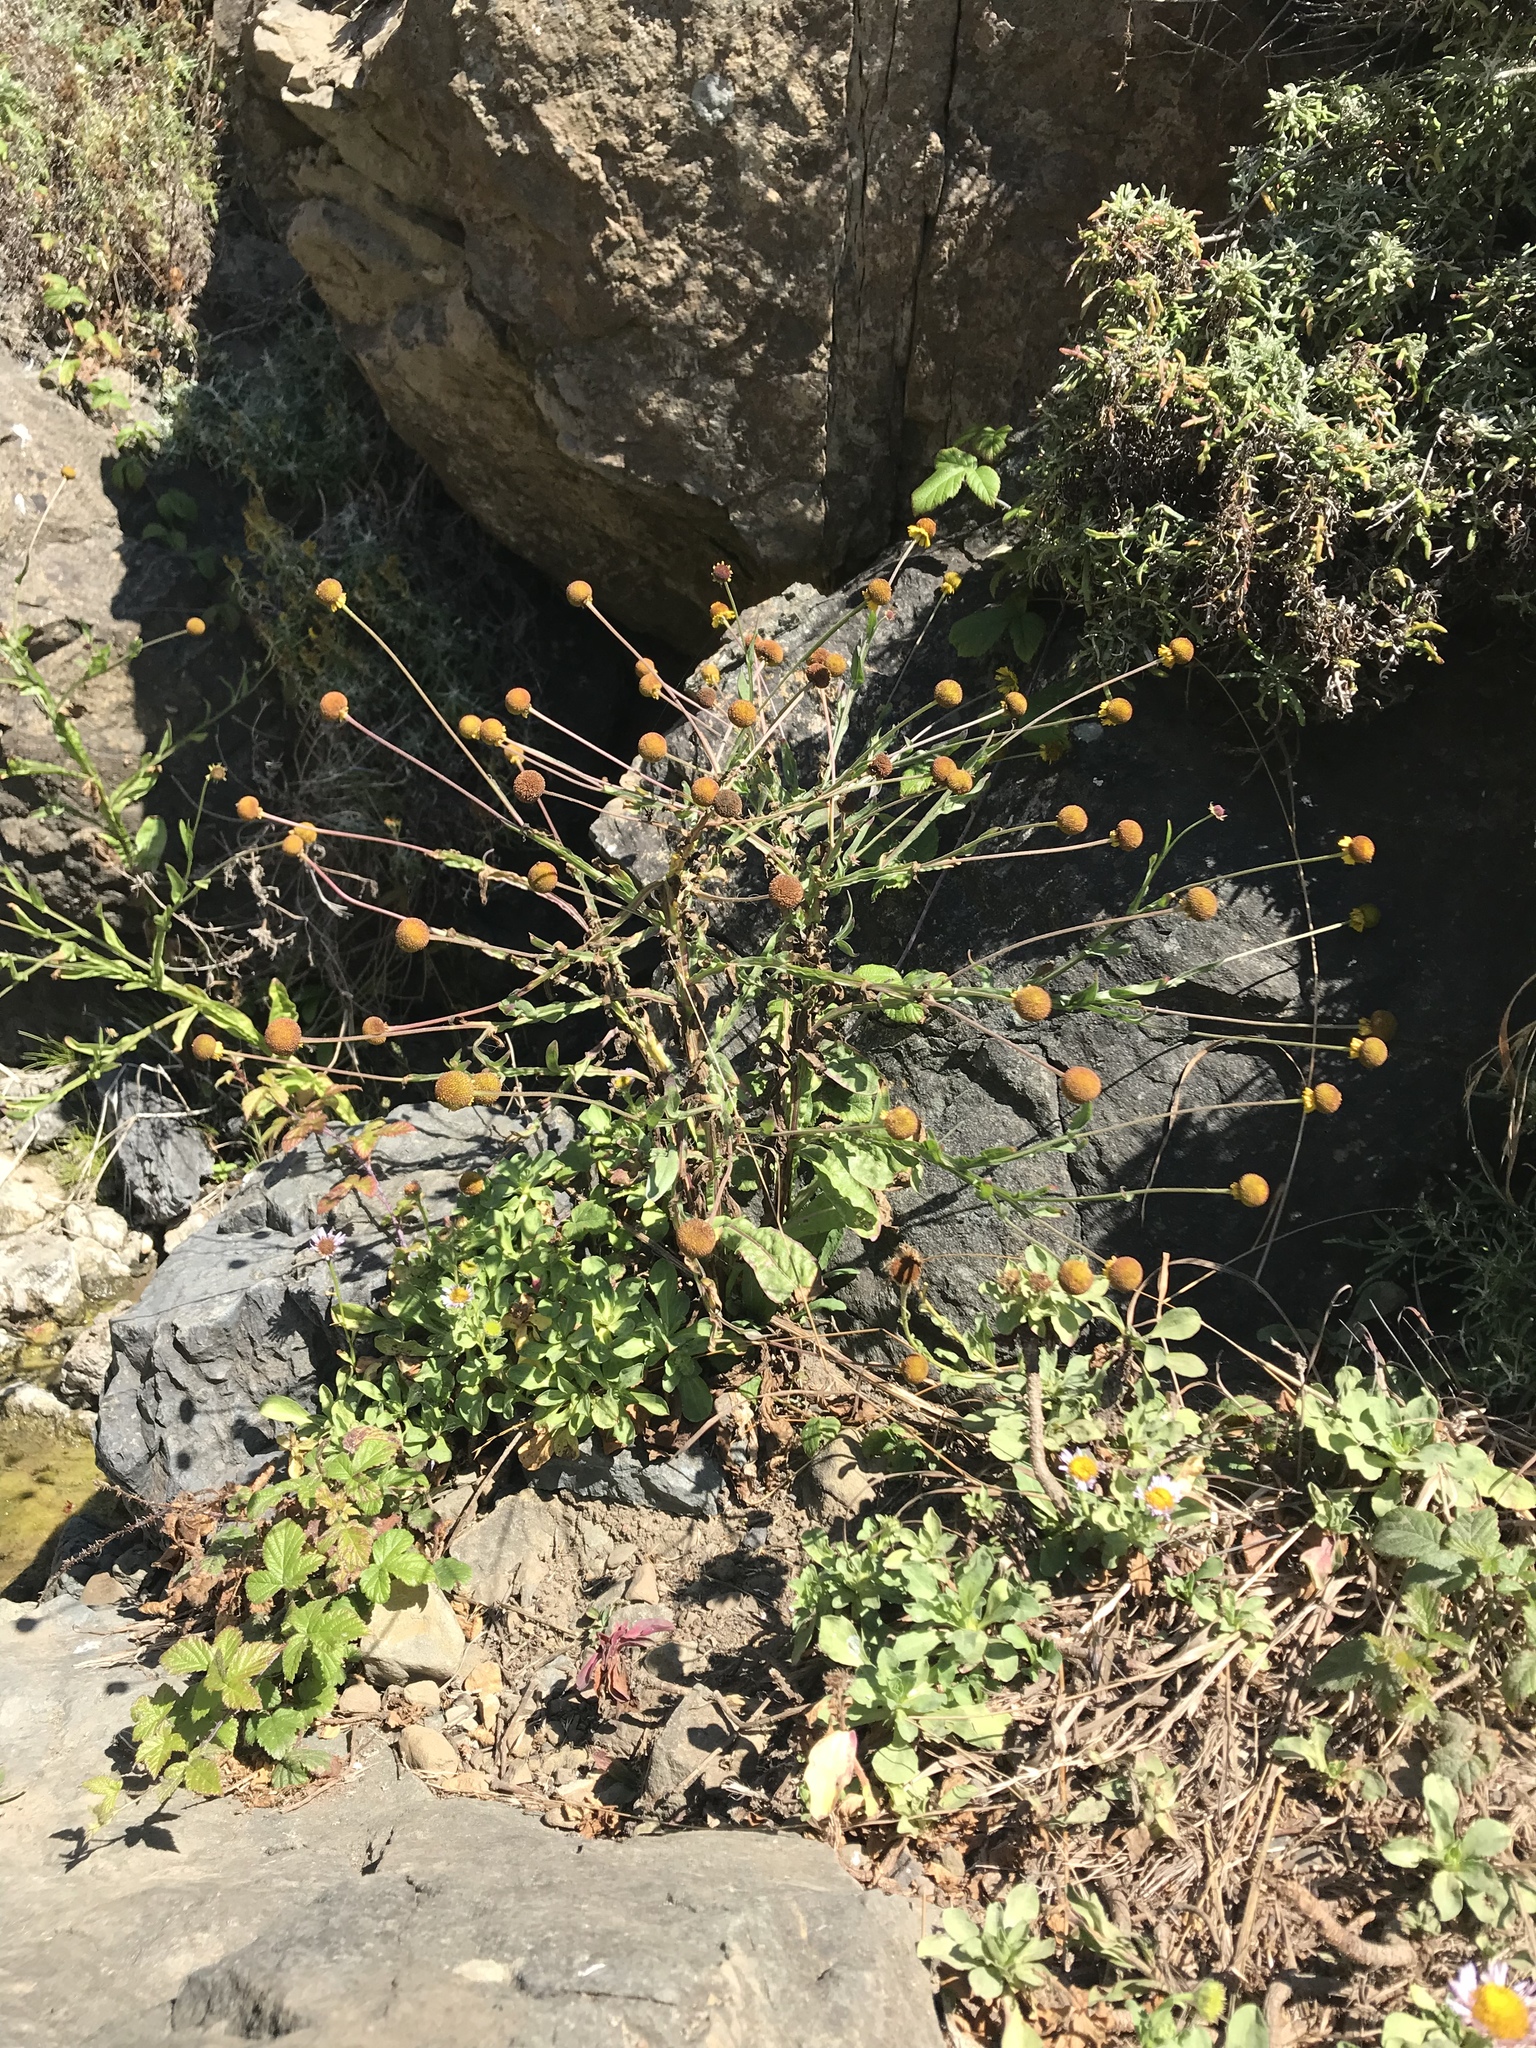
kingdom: Plantae
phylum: Tracheophyta
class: Magnoliopsida
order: Asterales
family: Asteraceae
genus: Helenium
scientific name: Helenium puberulum
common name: Sneezewort
